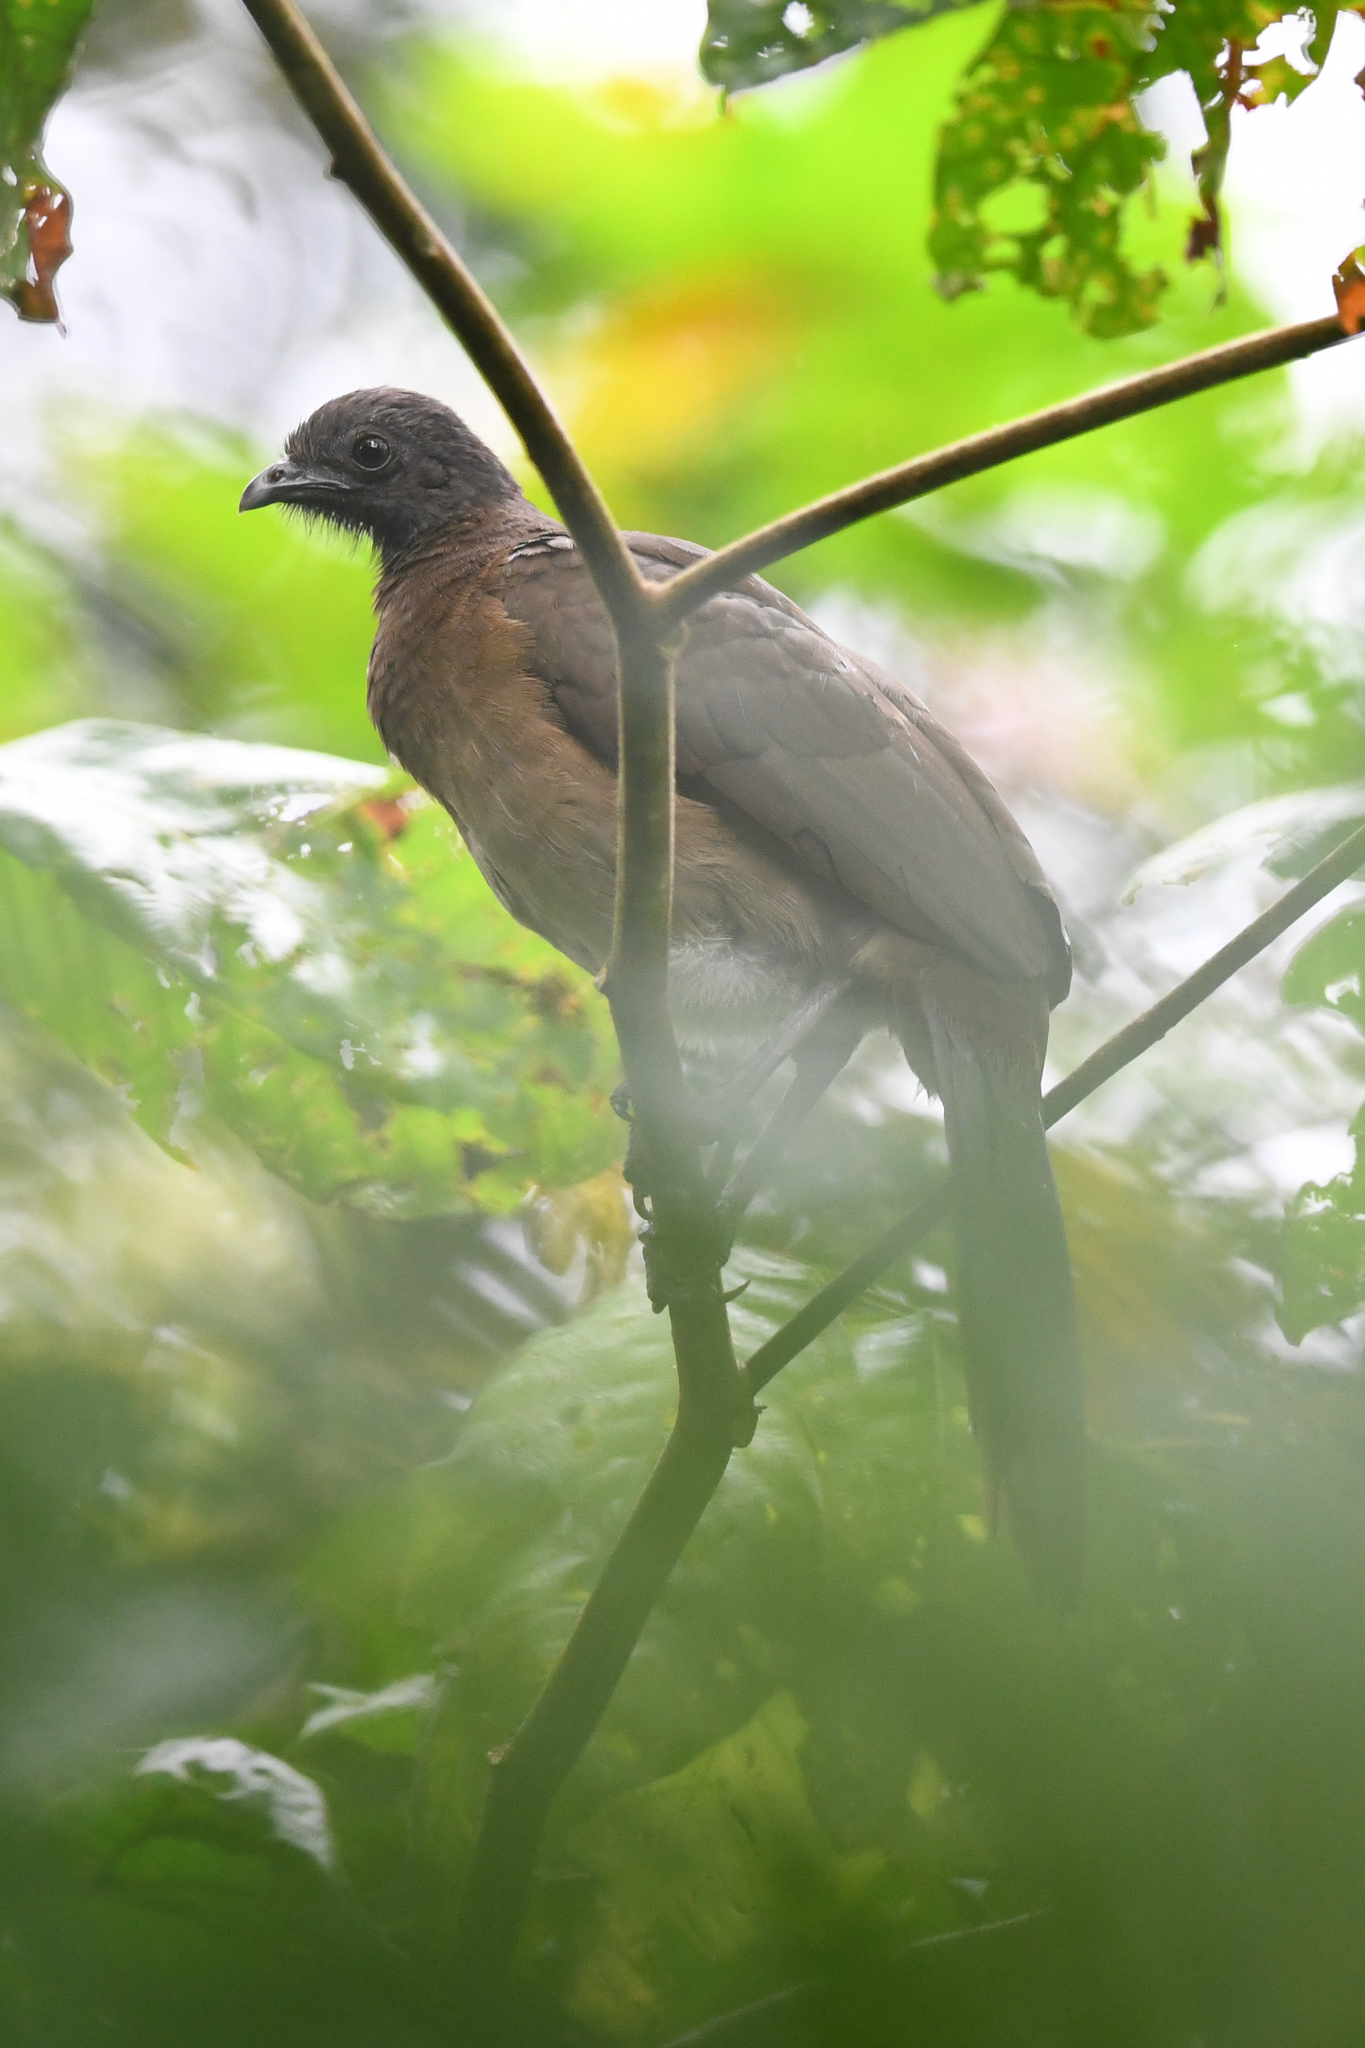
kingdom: Animalia
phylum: Chordata
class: Aves
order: Galliformes
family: Cracidae
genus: Ortalis
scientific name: Ortalis cinereiceps
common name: Grey-headed chachalaca
